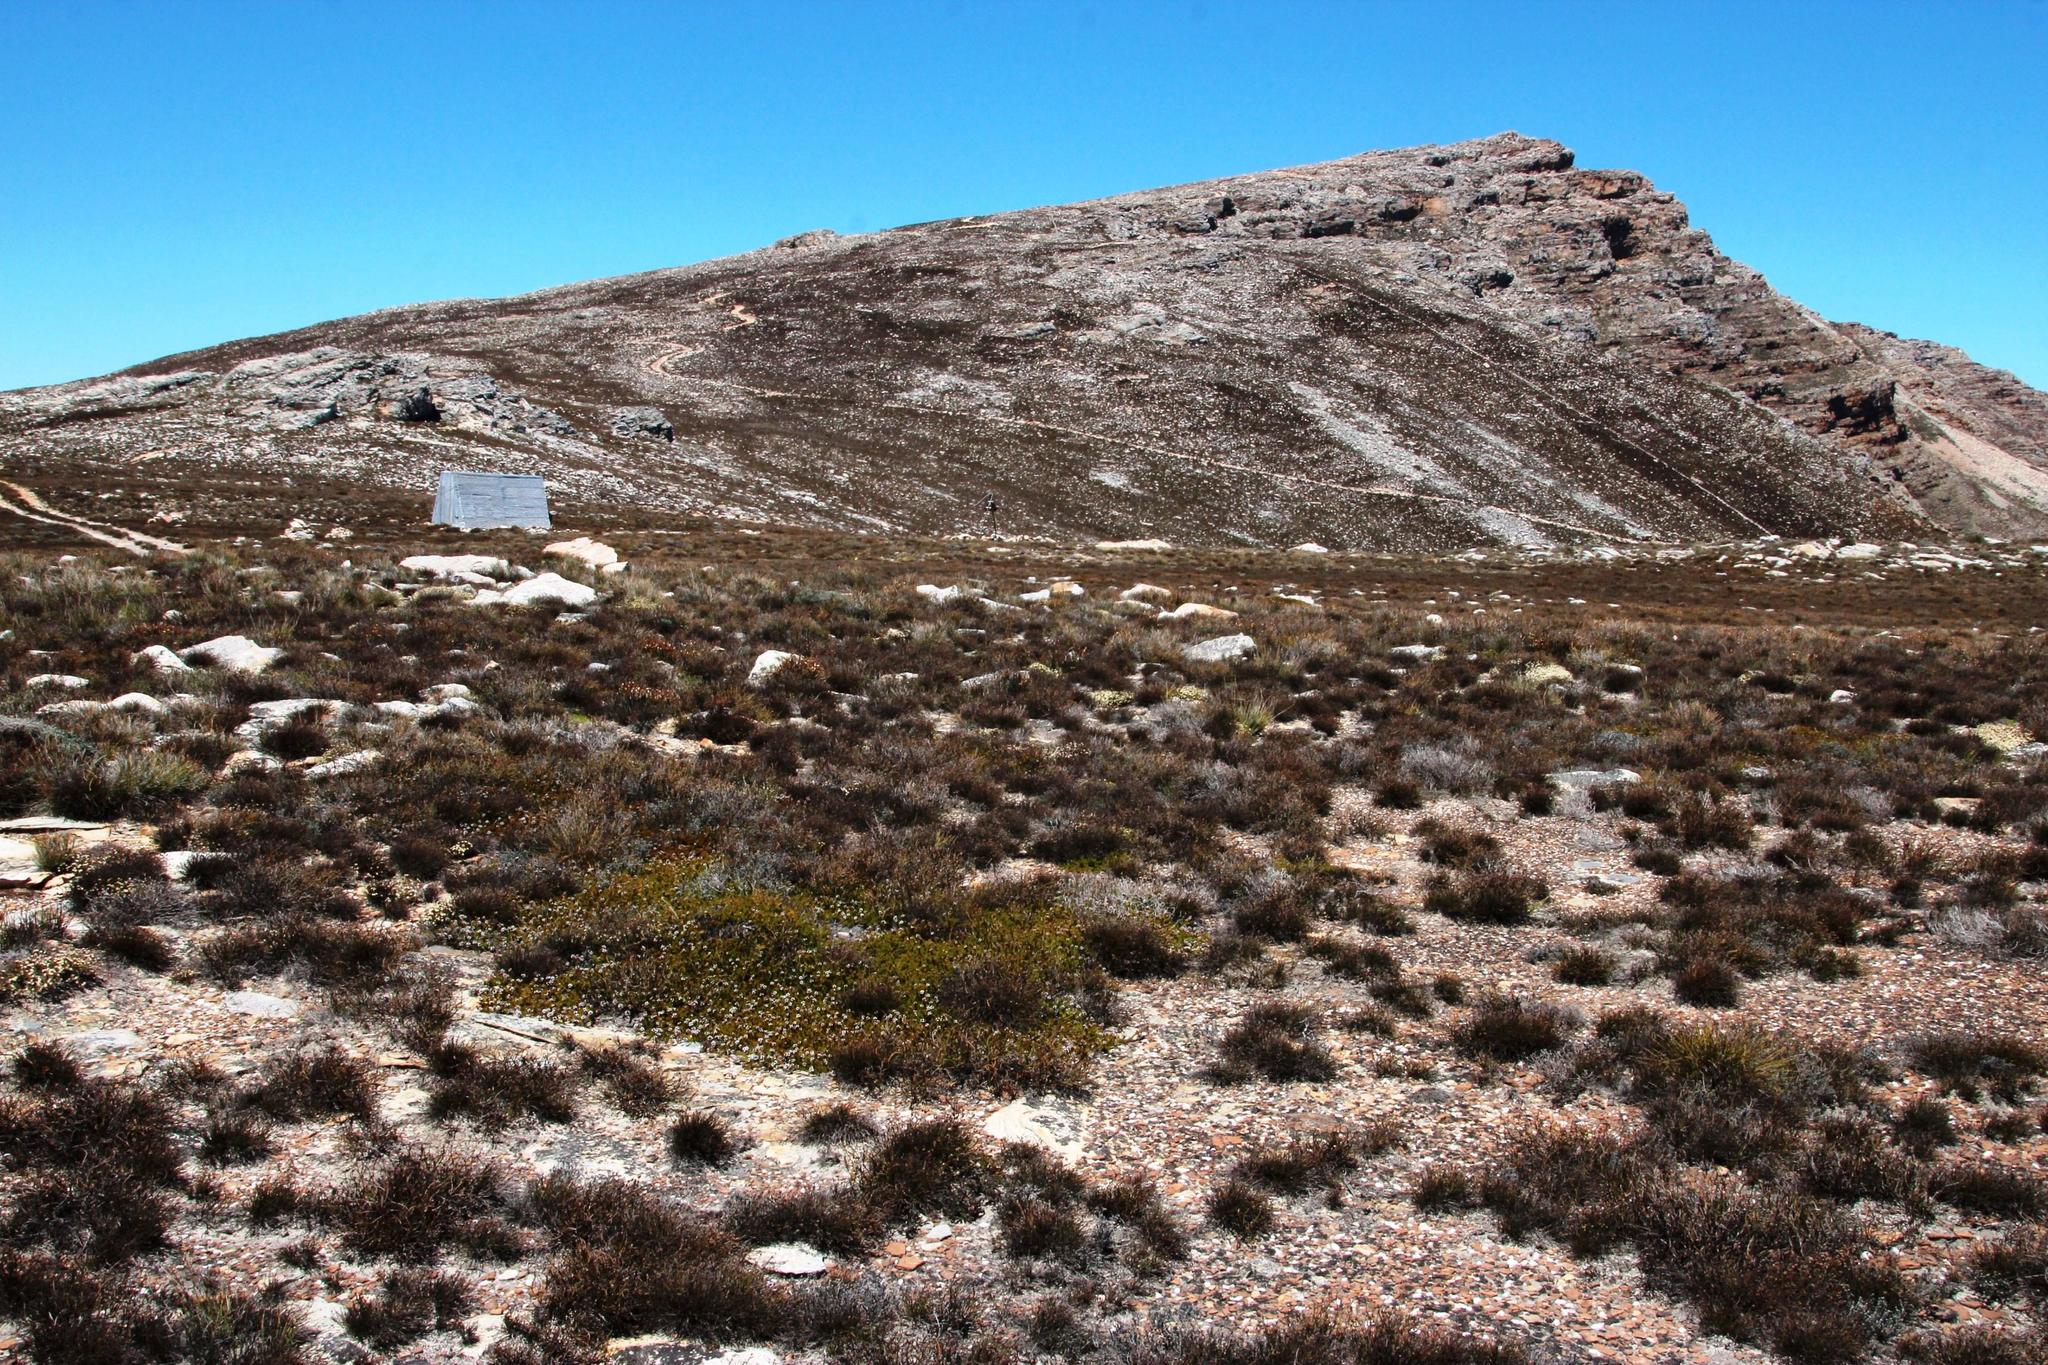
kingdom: Plantae
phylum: Tracheophyta
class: Magnoliopsida
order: Proteales
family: Proteaceae
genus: Spatalla
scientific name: Spatalla confusa
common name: Long-tube spoon
